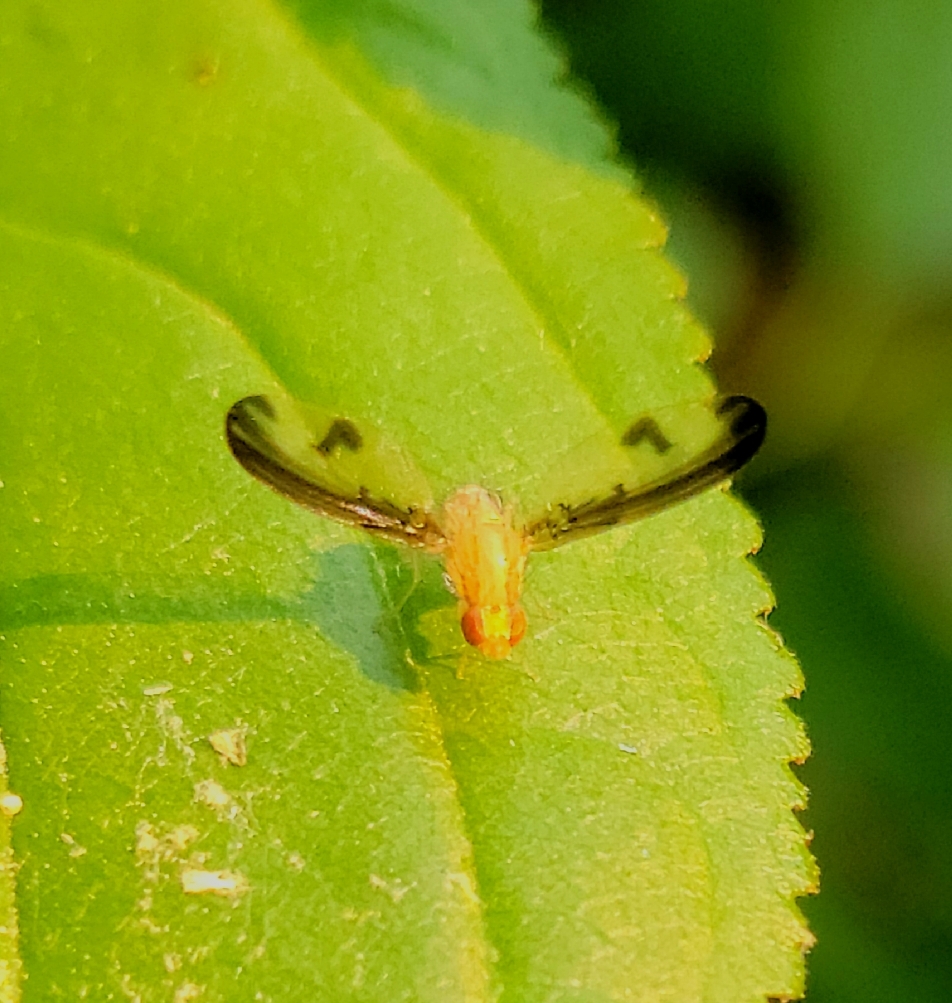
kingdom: Animalia
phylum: Arthropoda
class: Insecta
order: Diptera
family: Pallopteridae
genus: Toxonevra
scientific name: Toxonevra superba
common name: Antlered flutter fly
